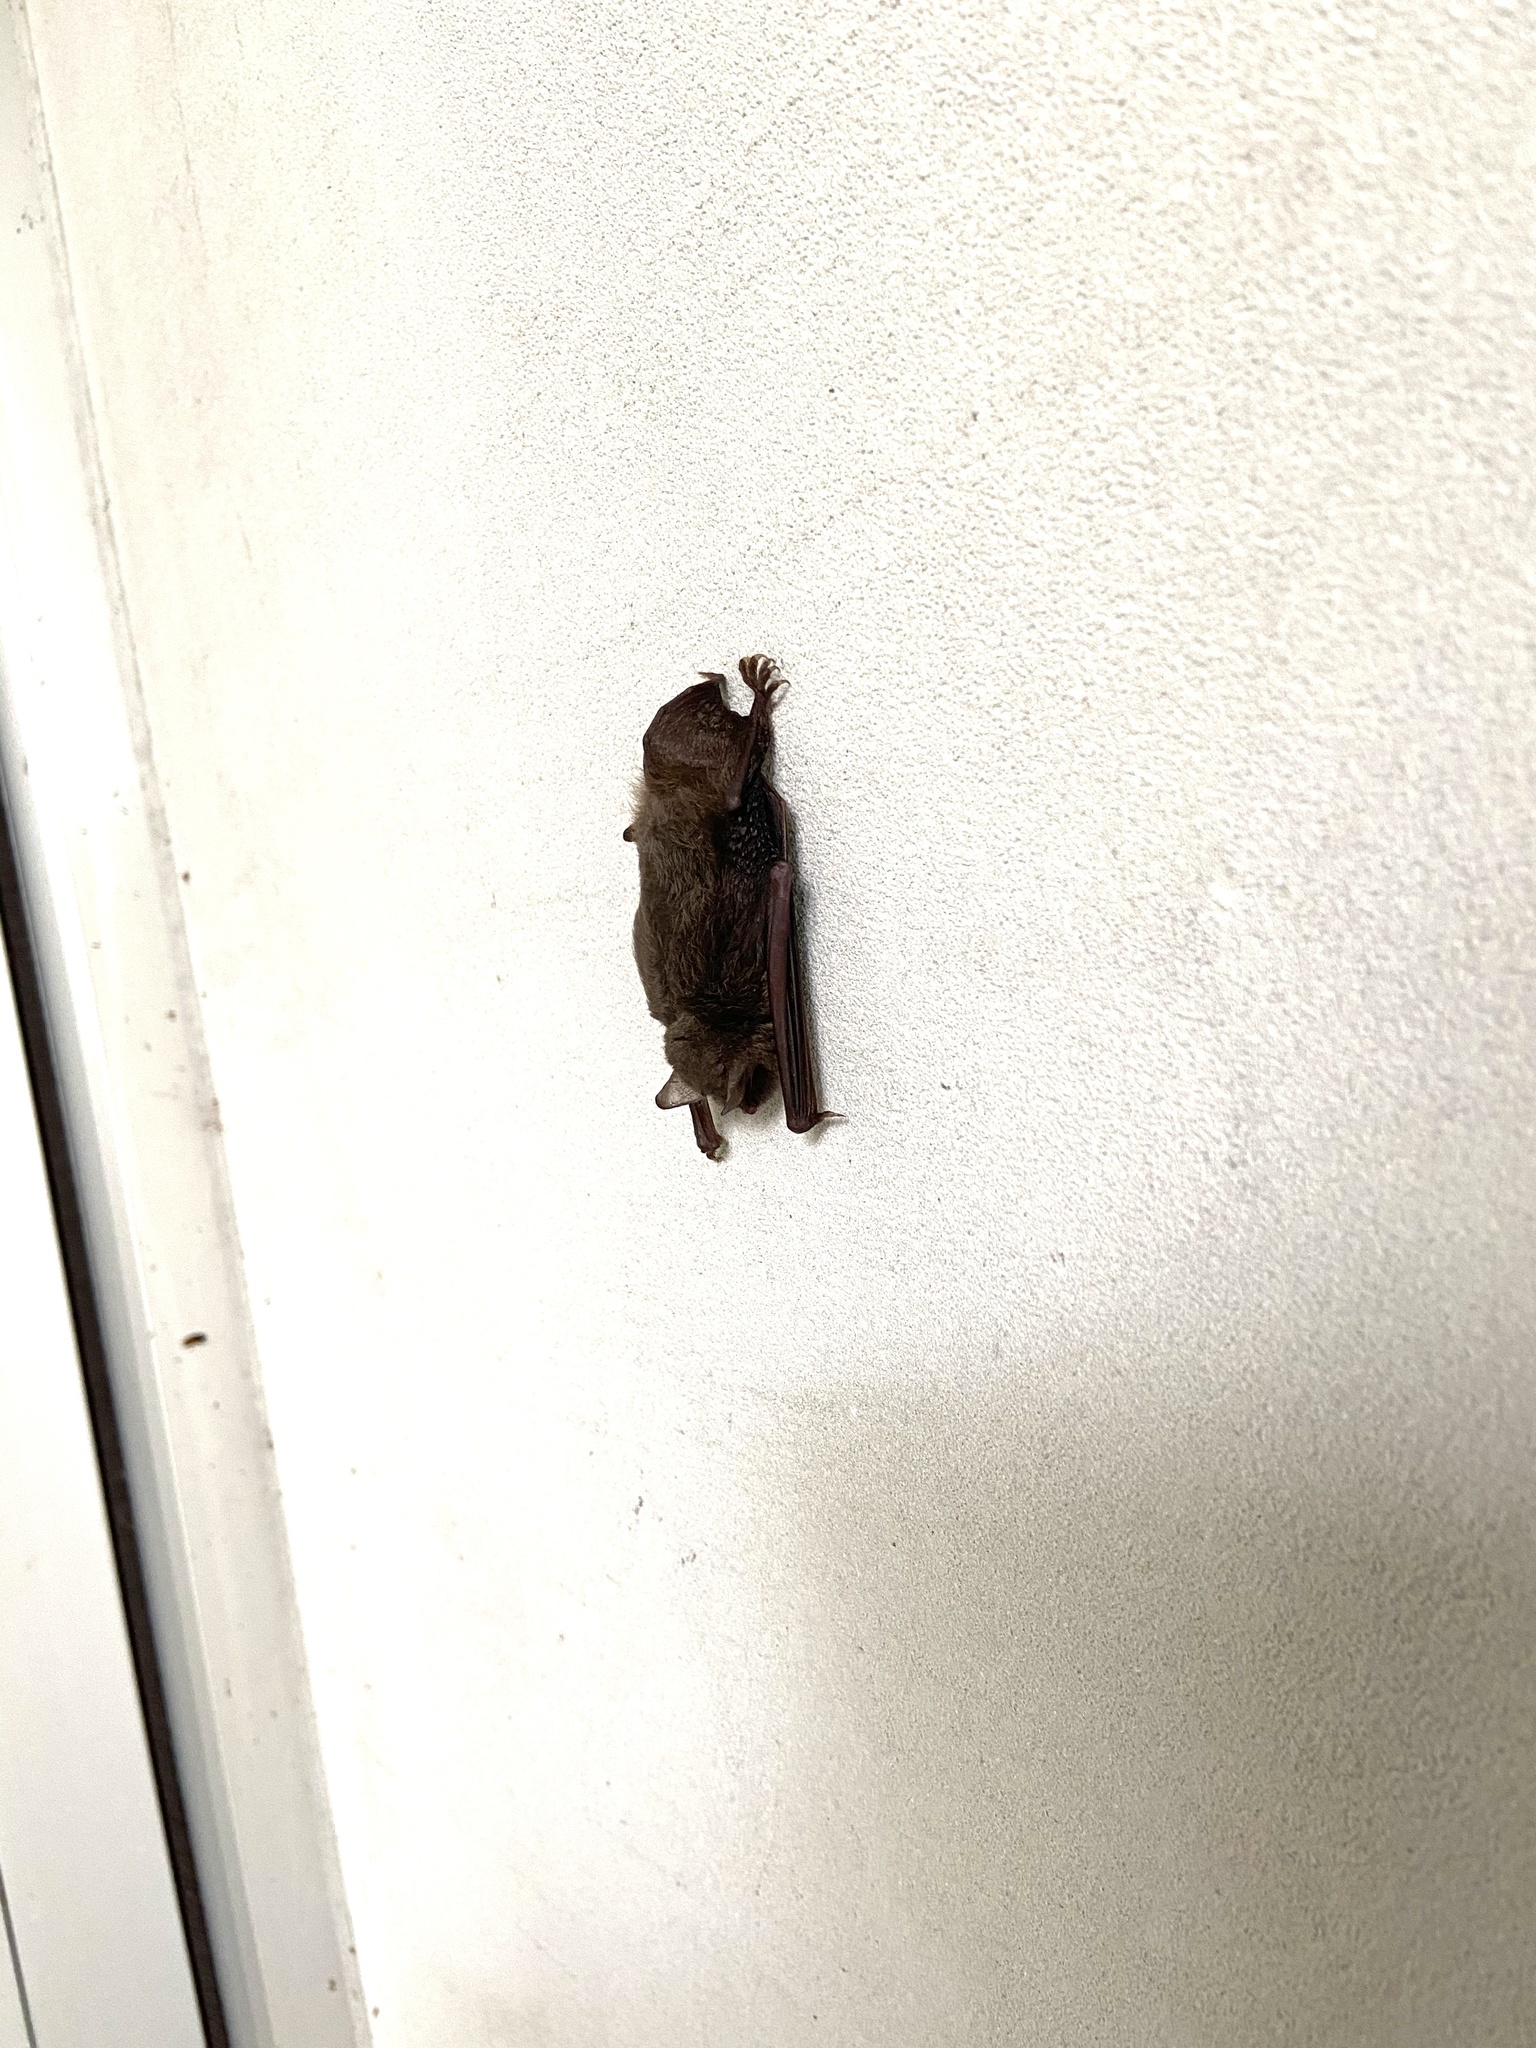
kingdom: Animalia
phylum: Chordata
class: Mammalia
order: Chiroptera
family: Vespertilionidae
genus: Perimyotis
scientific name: Perimyotis subflavus
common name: Eastern pipistrelle
